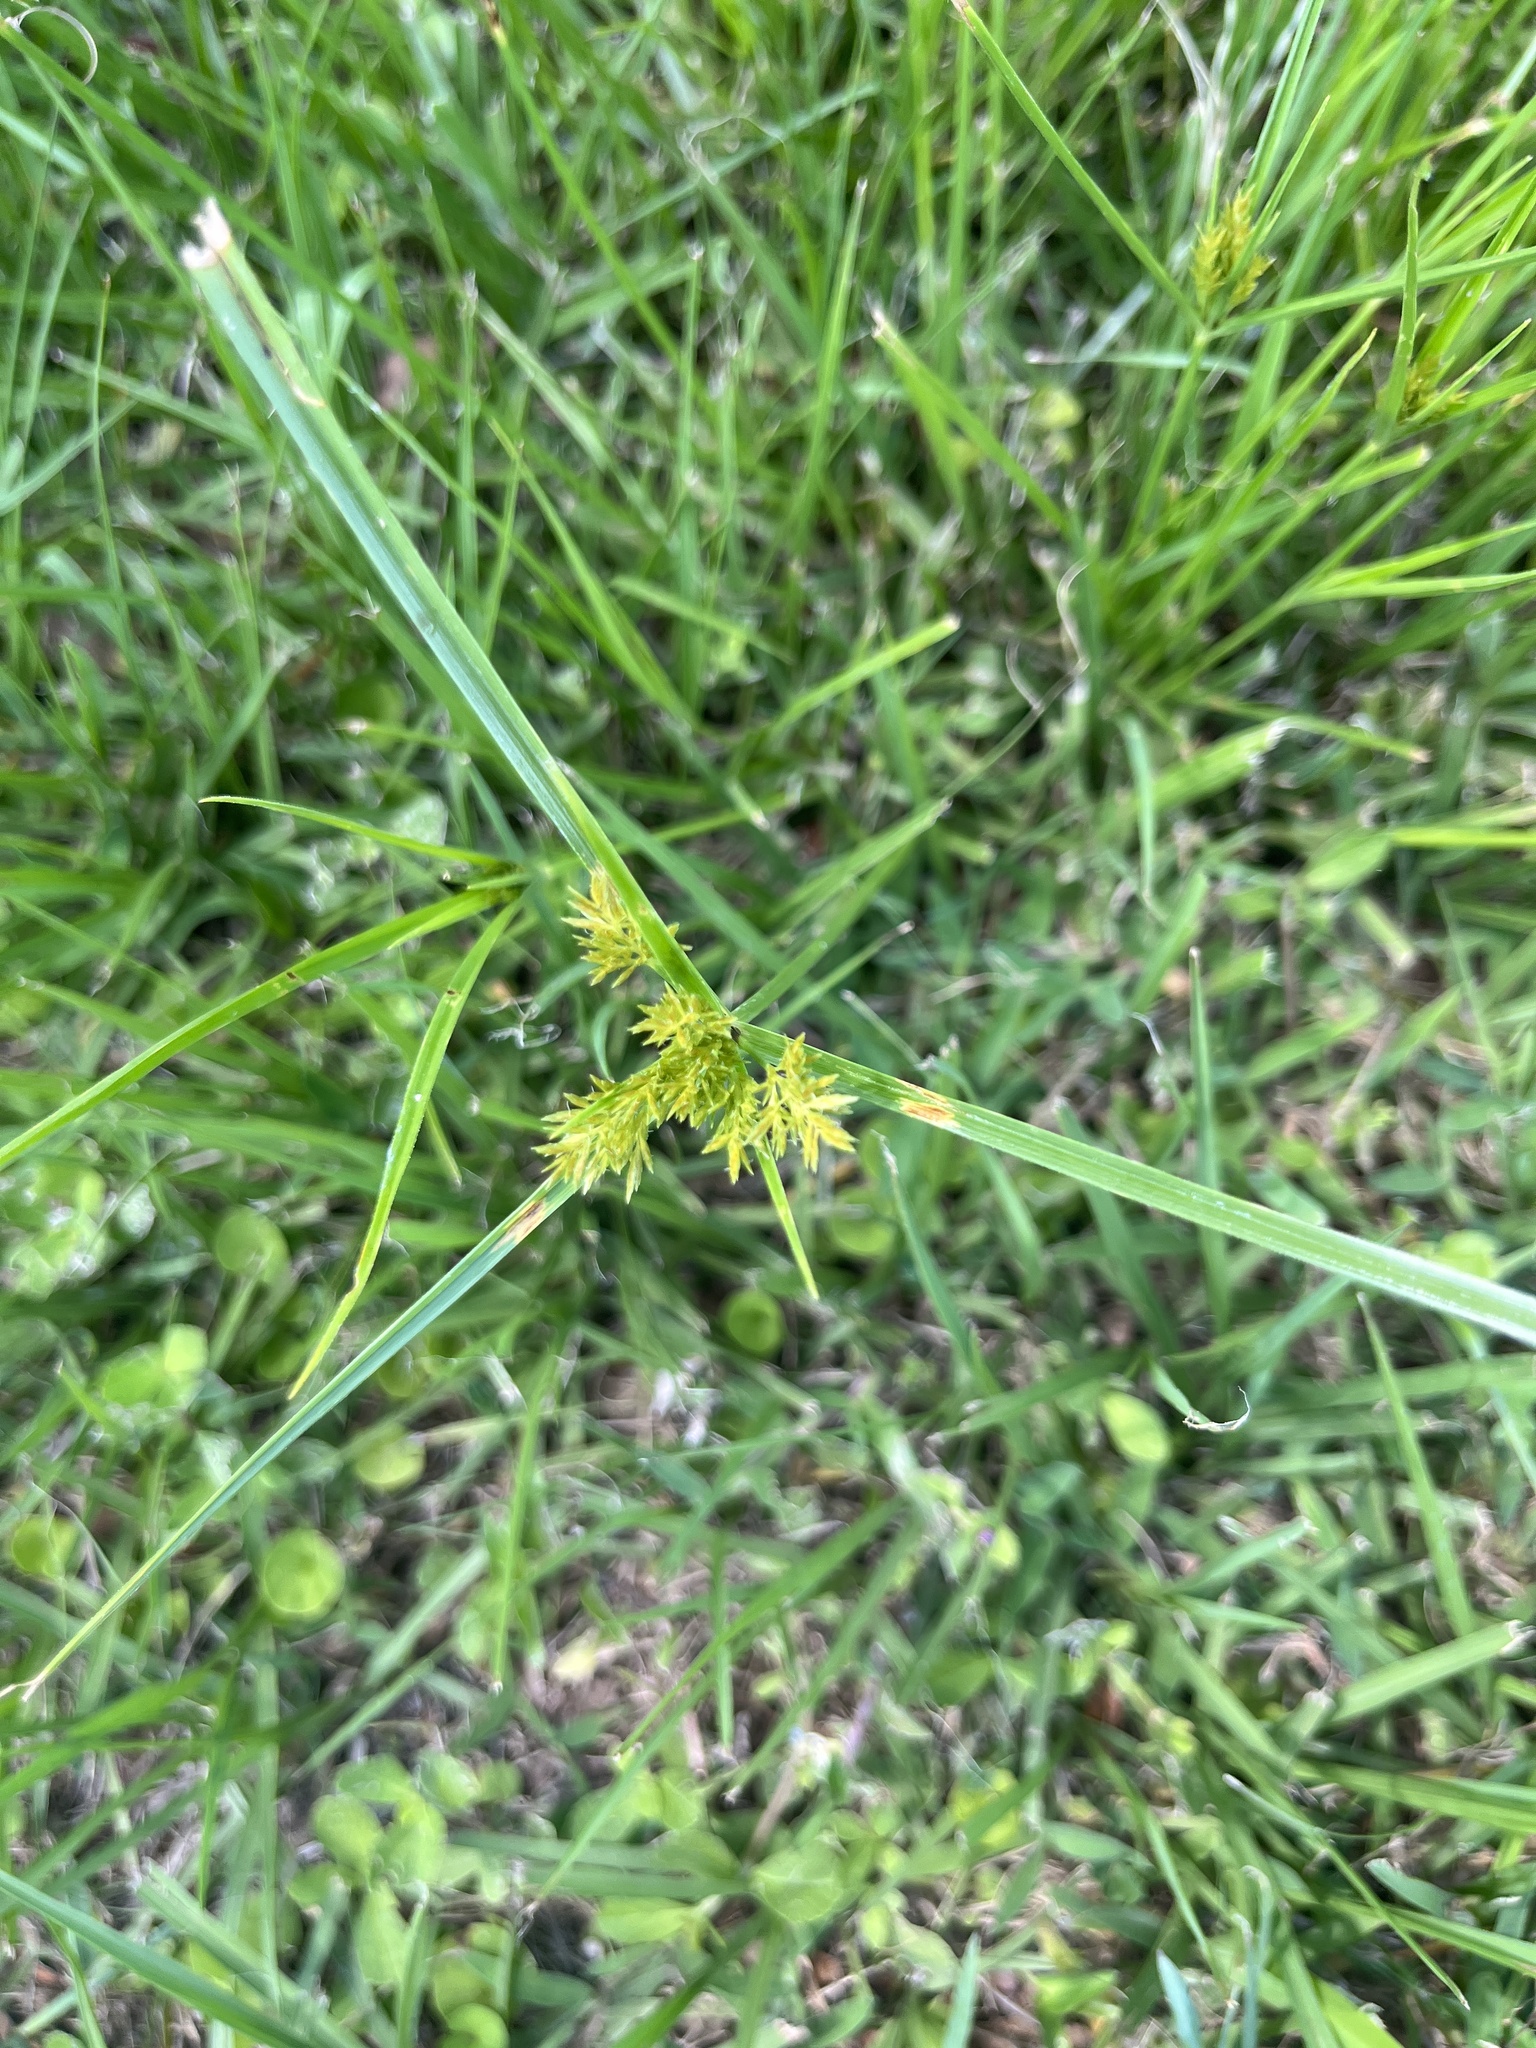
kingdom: Plantae
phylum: Tracheophyta
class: Liliopsida
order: Poales
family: Cyperaceae
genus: Cyperus
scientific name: Cyperus polystachyos
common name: Bunchy flat sedge
